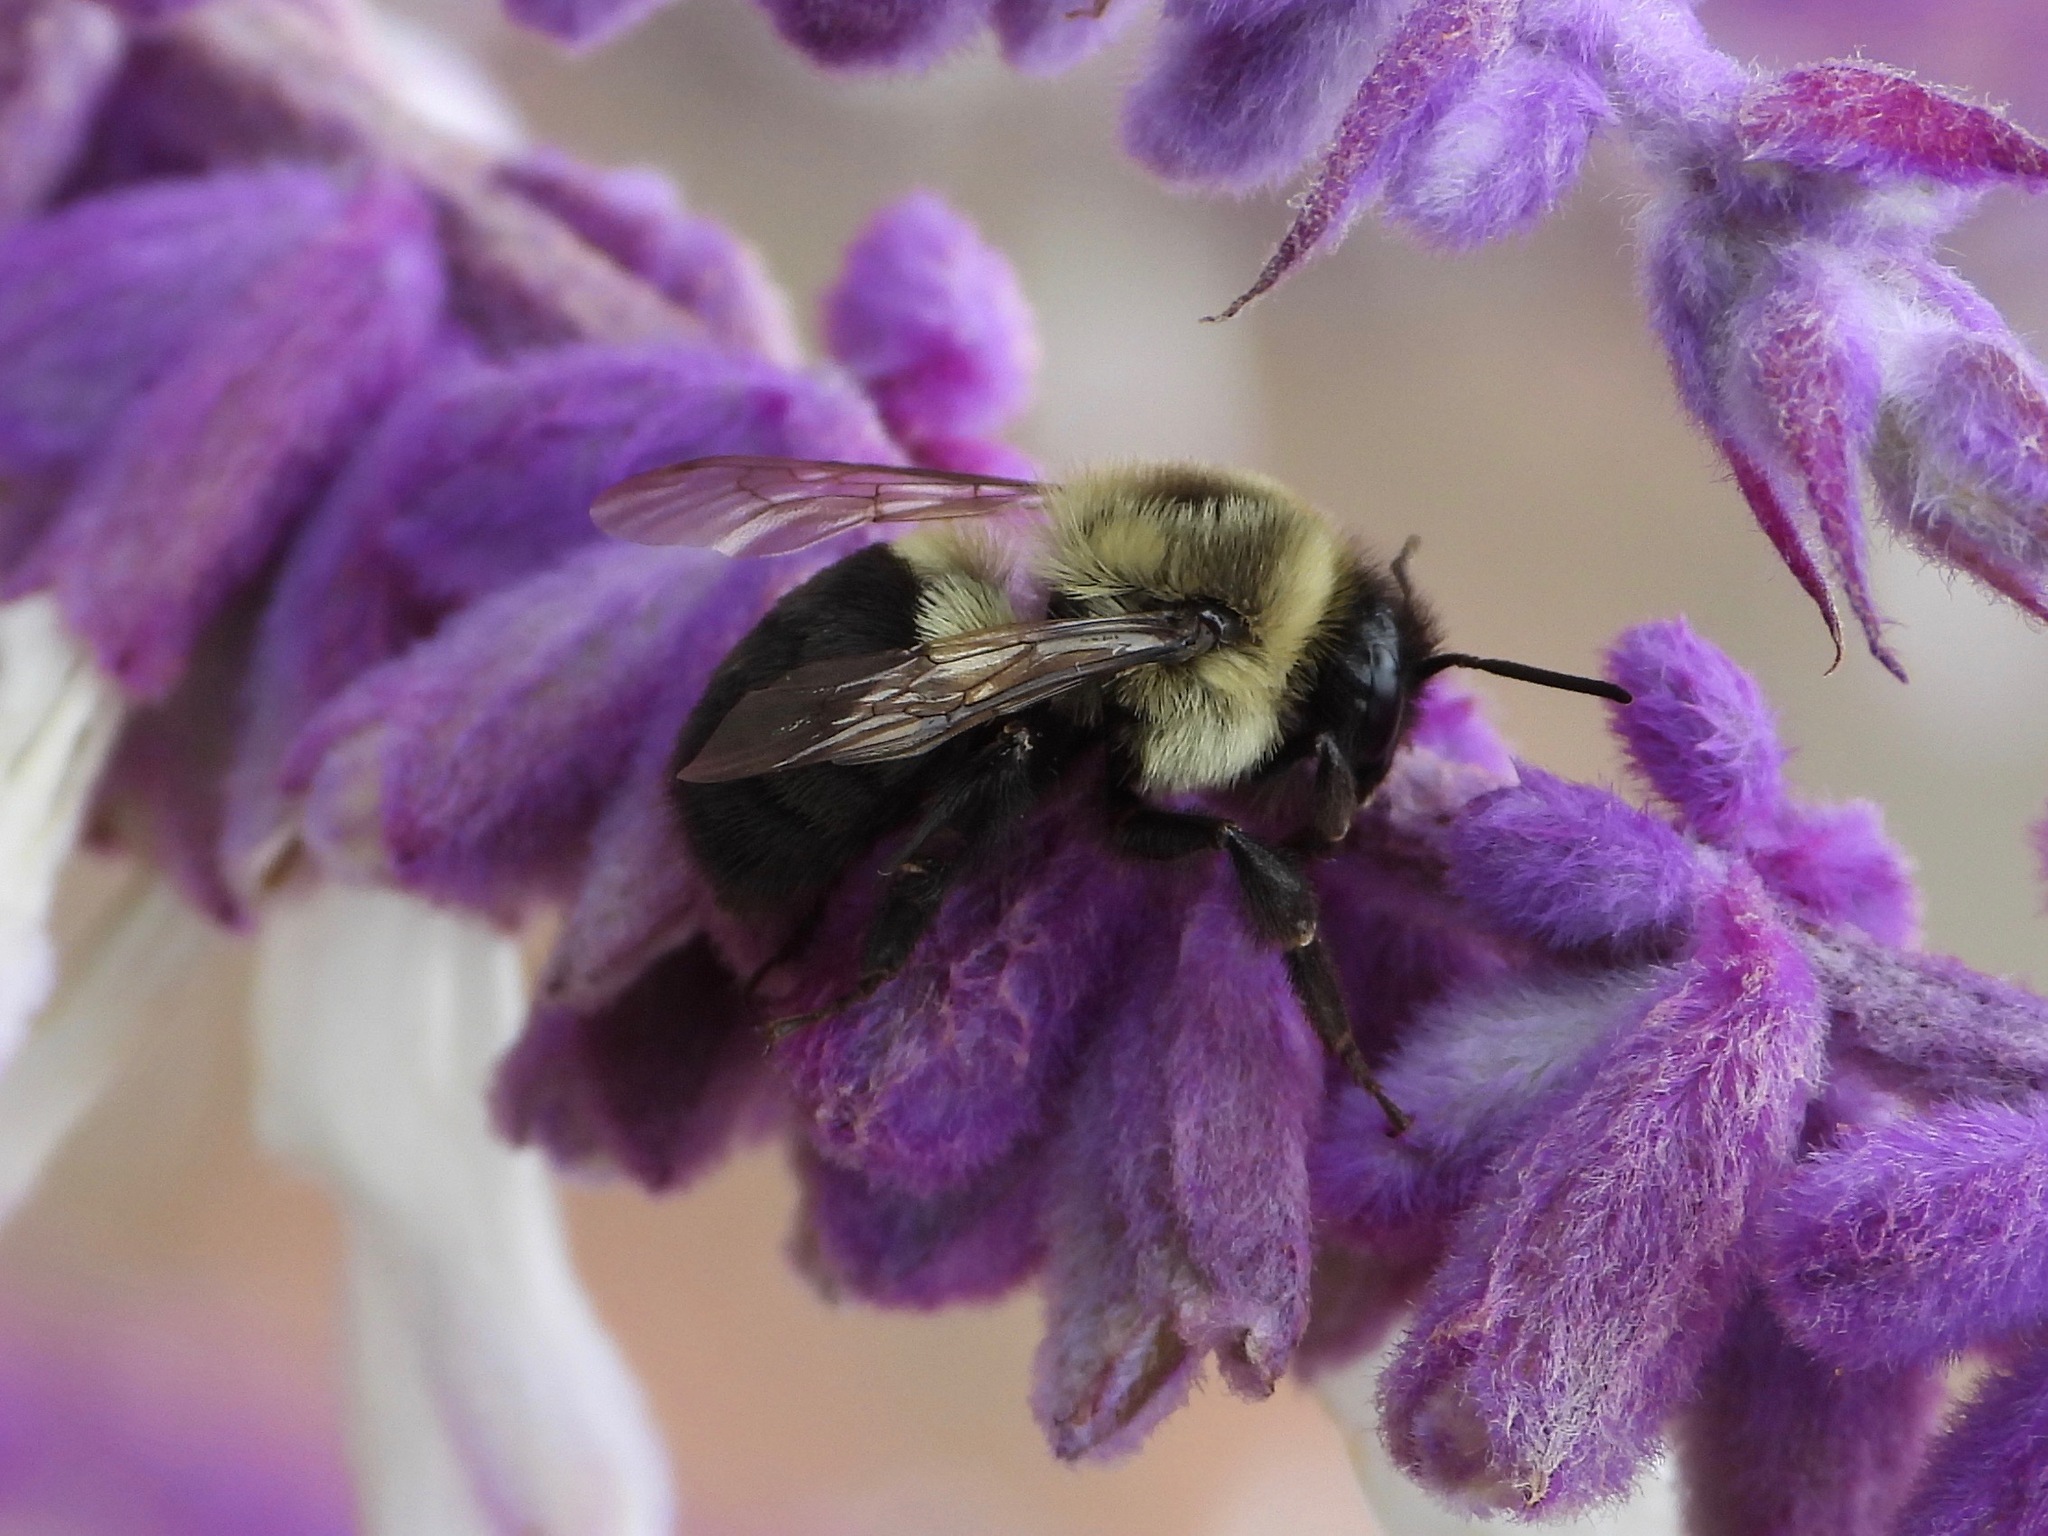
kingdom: Animalia
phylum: Arthropoda
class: Insecta
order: Hymenoptera
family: Apidae
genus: Bombus
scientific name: Bombus impatiens
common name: Common eastern bumble bee
